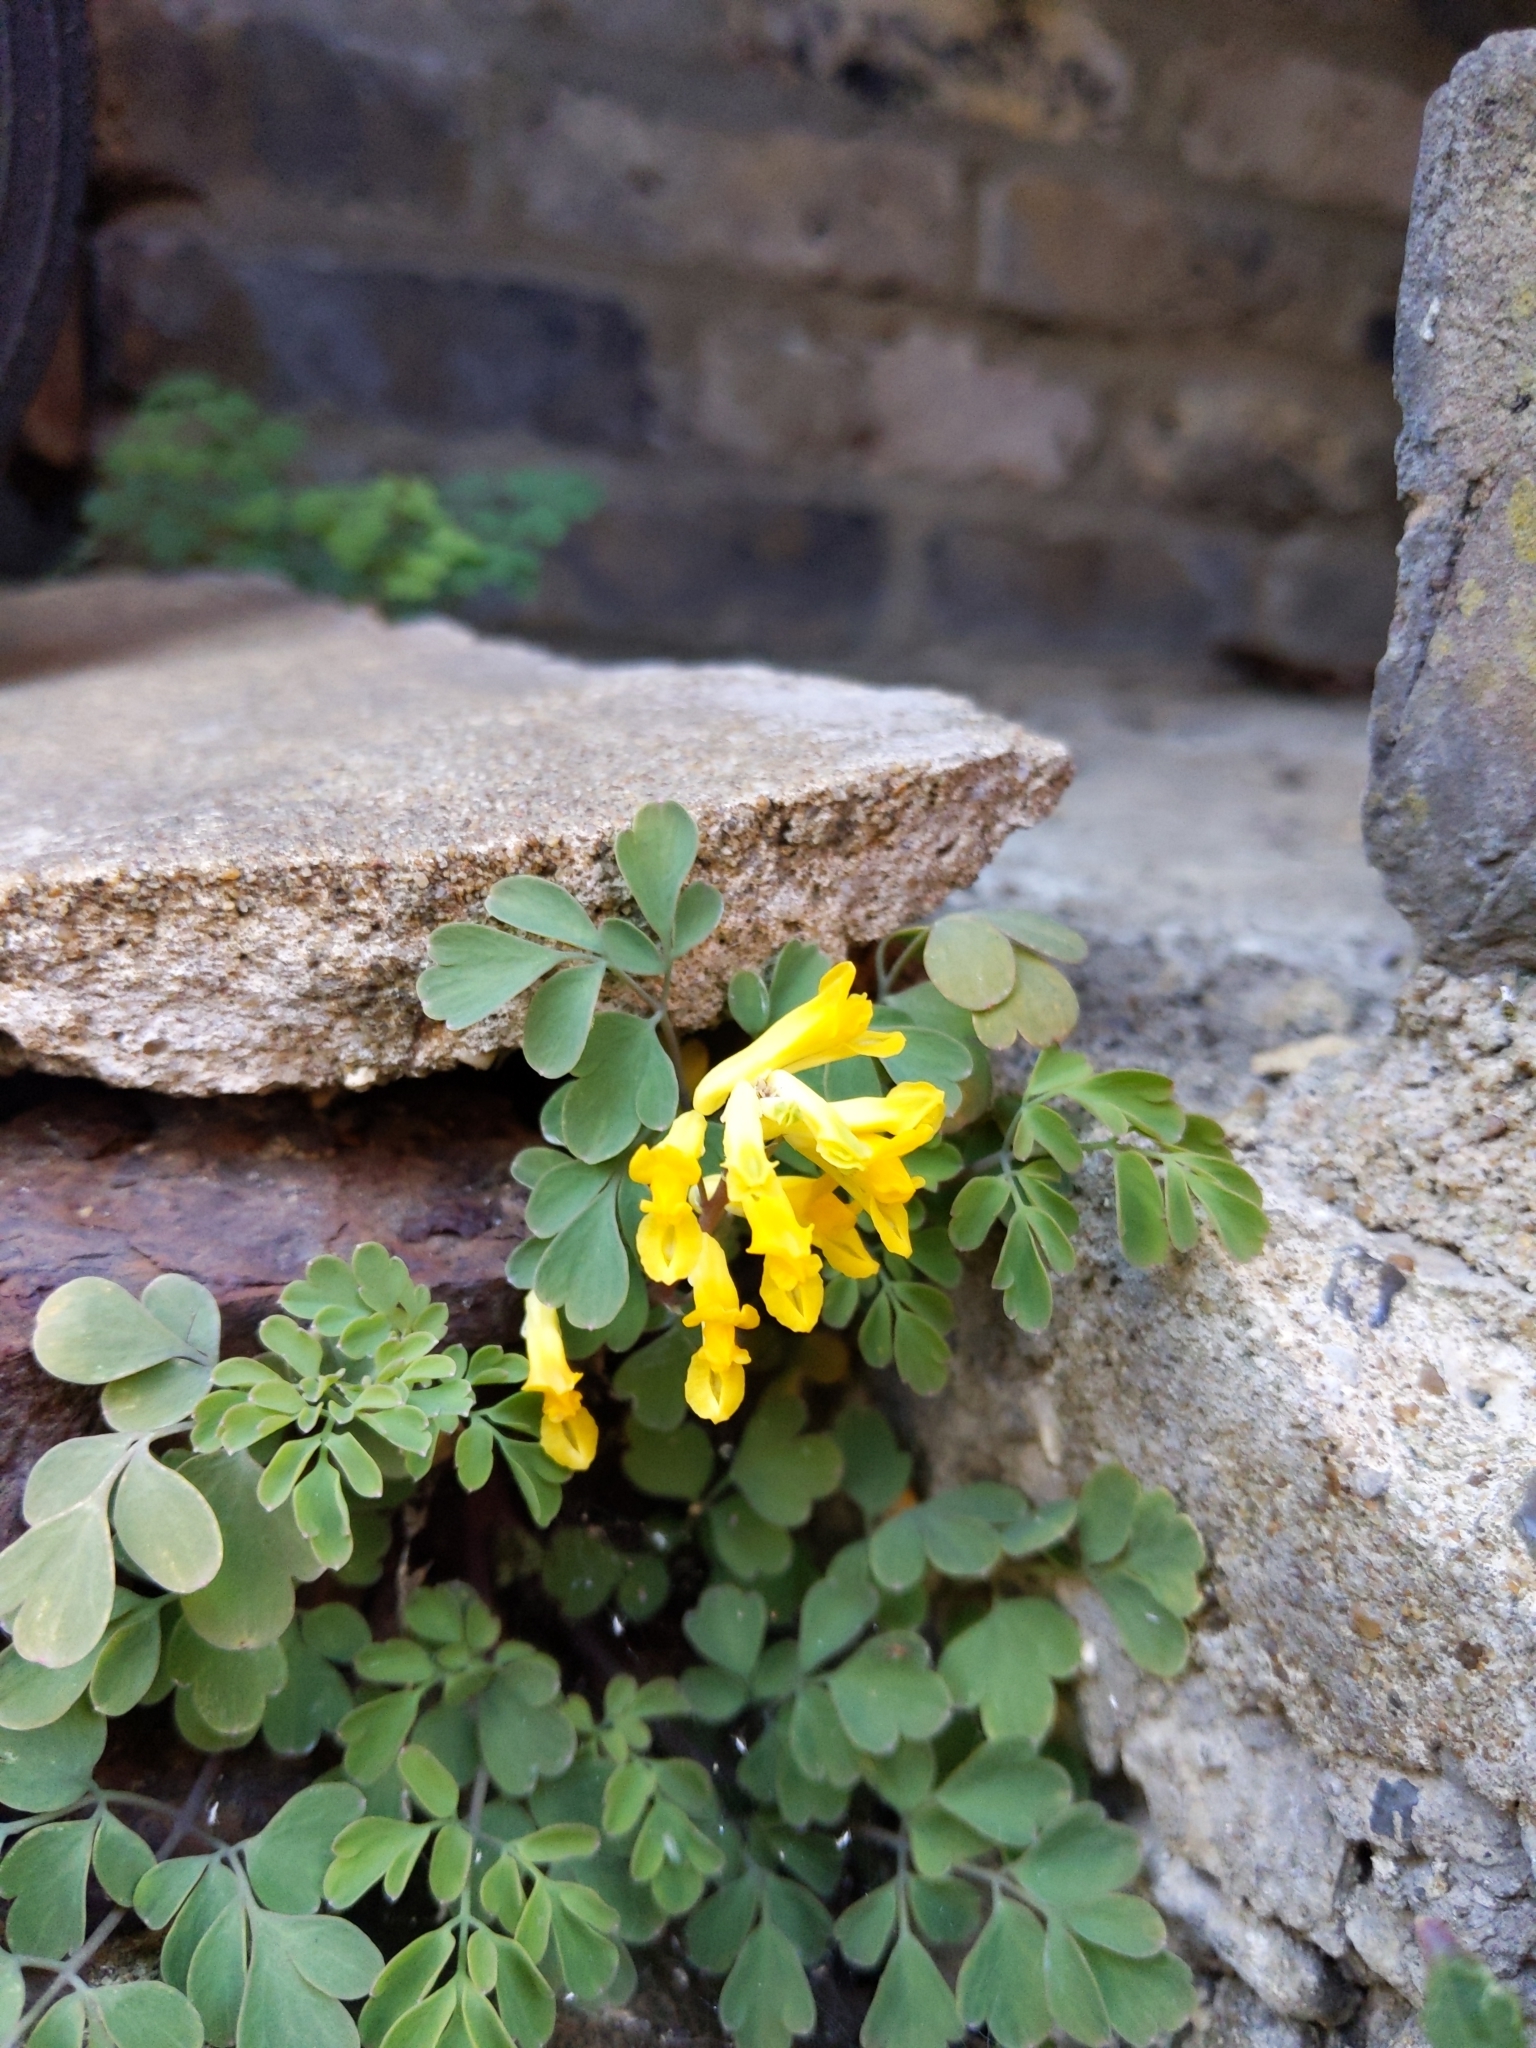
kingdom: Plantae
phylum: Tracheophyta
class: Magnoliopsida
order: Ranunculales
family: Papaveraceae
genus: Pseudofumaria
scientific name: Pseudofumaria lutea
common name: Yellow corydalis
